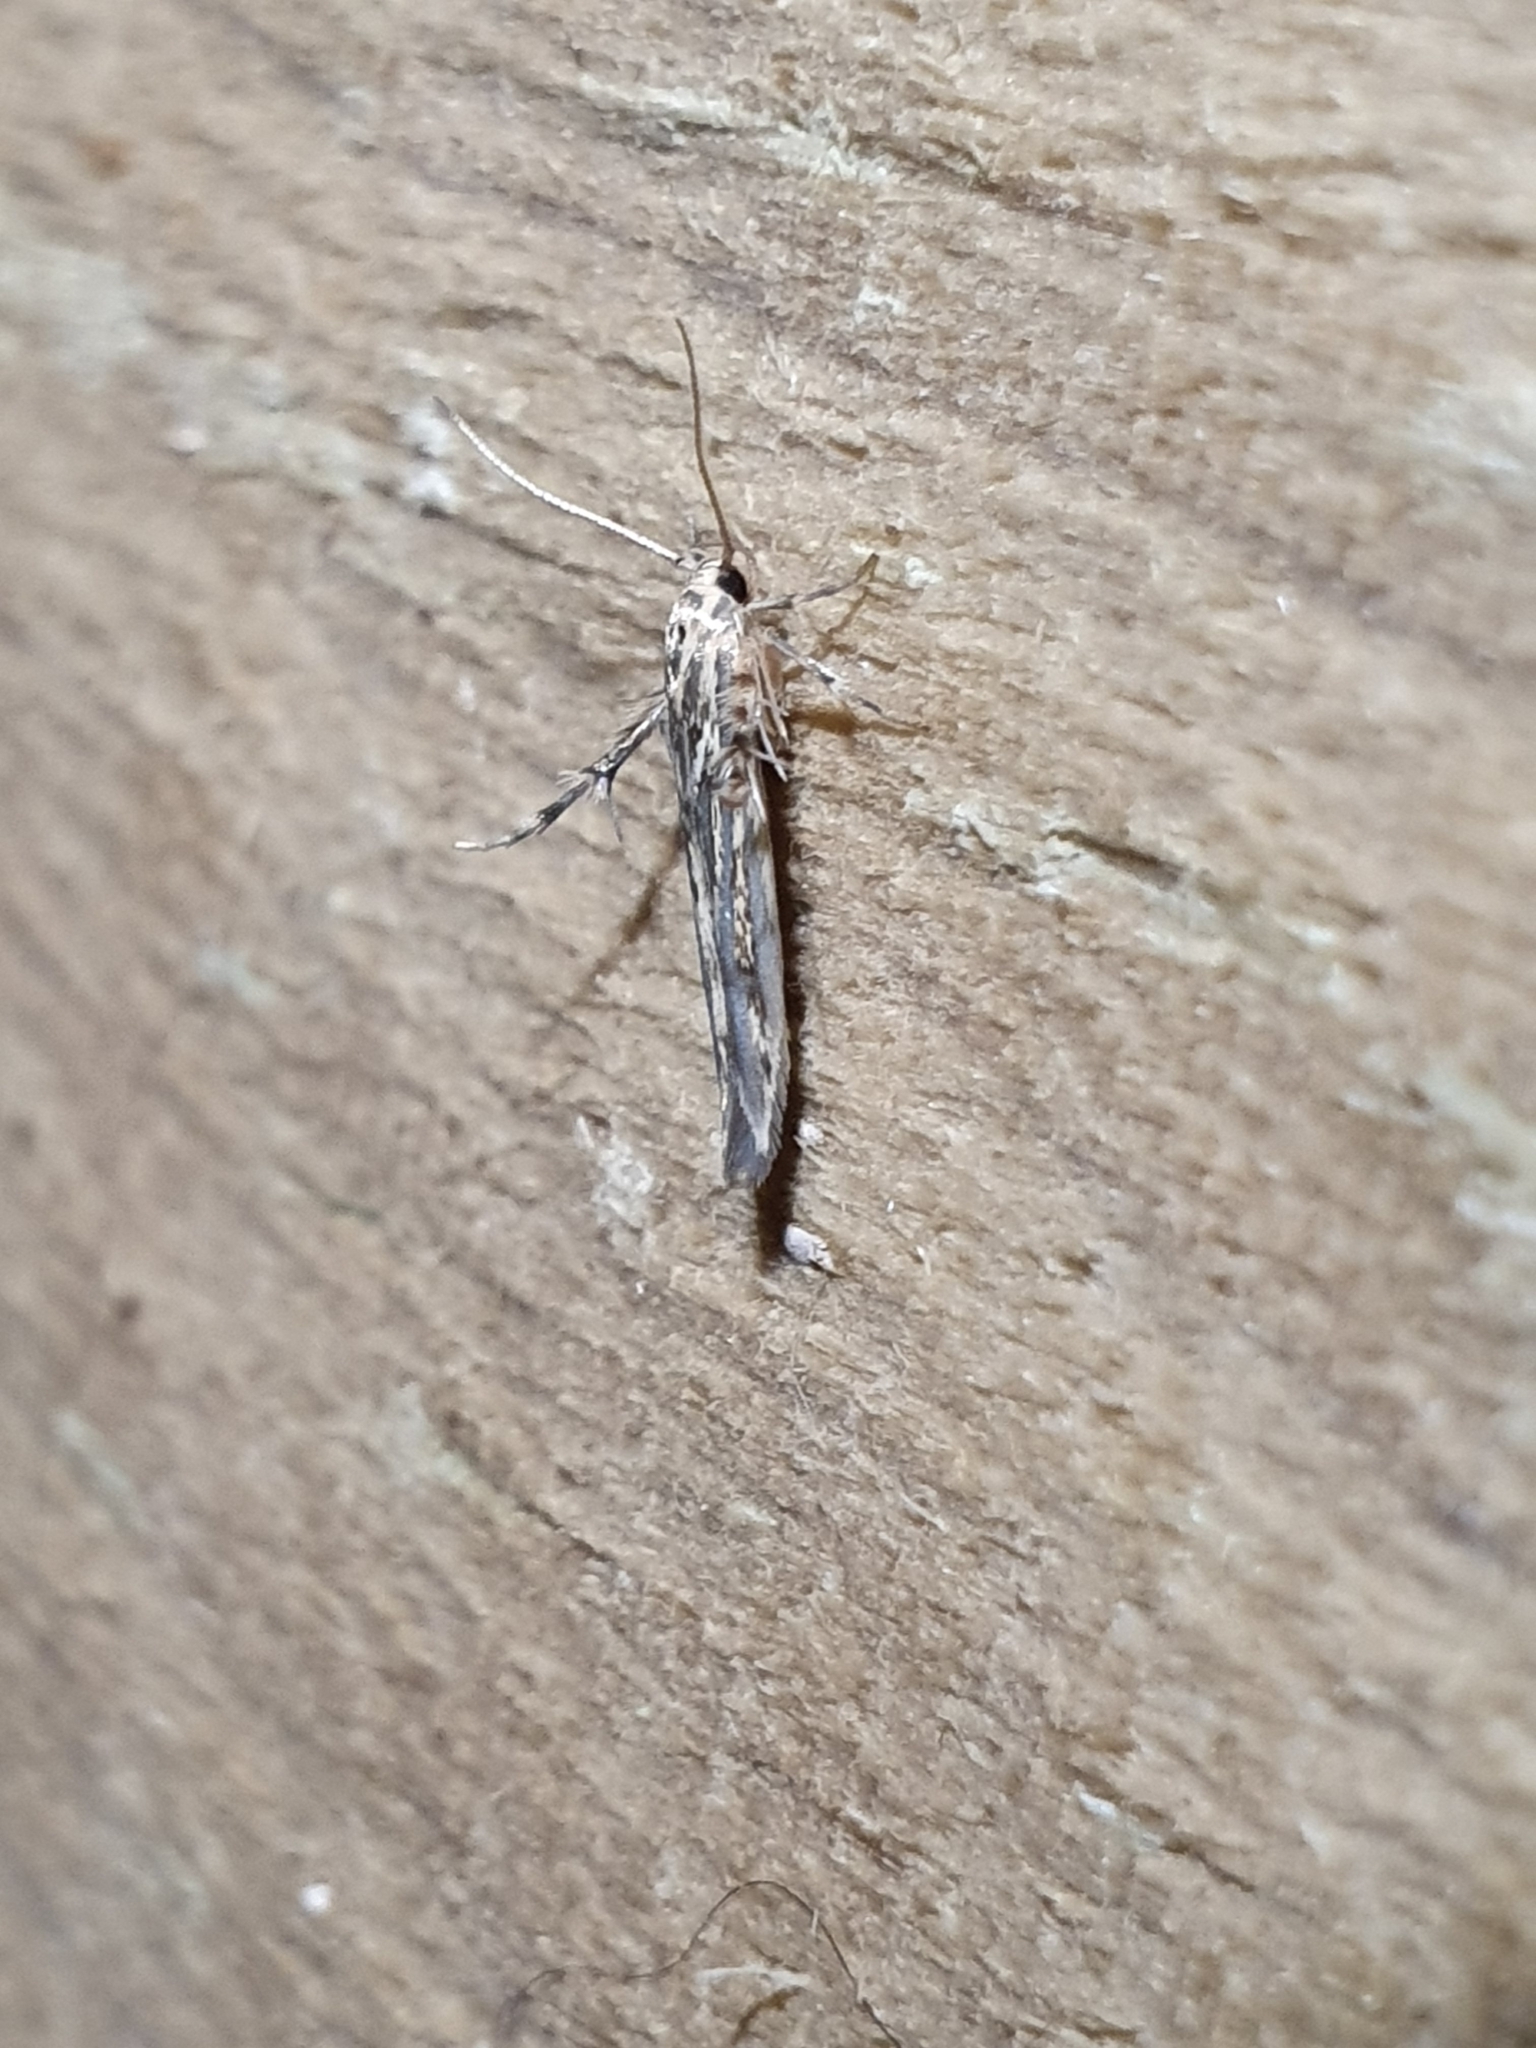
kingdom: Animalia
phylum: Arthropoda
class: Insecta
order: Lepidoptera
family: Stathmopodidae
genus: Stathmopoda
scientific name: Stathmopoda plumbiflua
